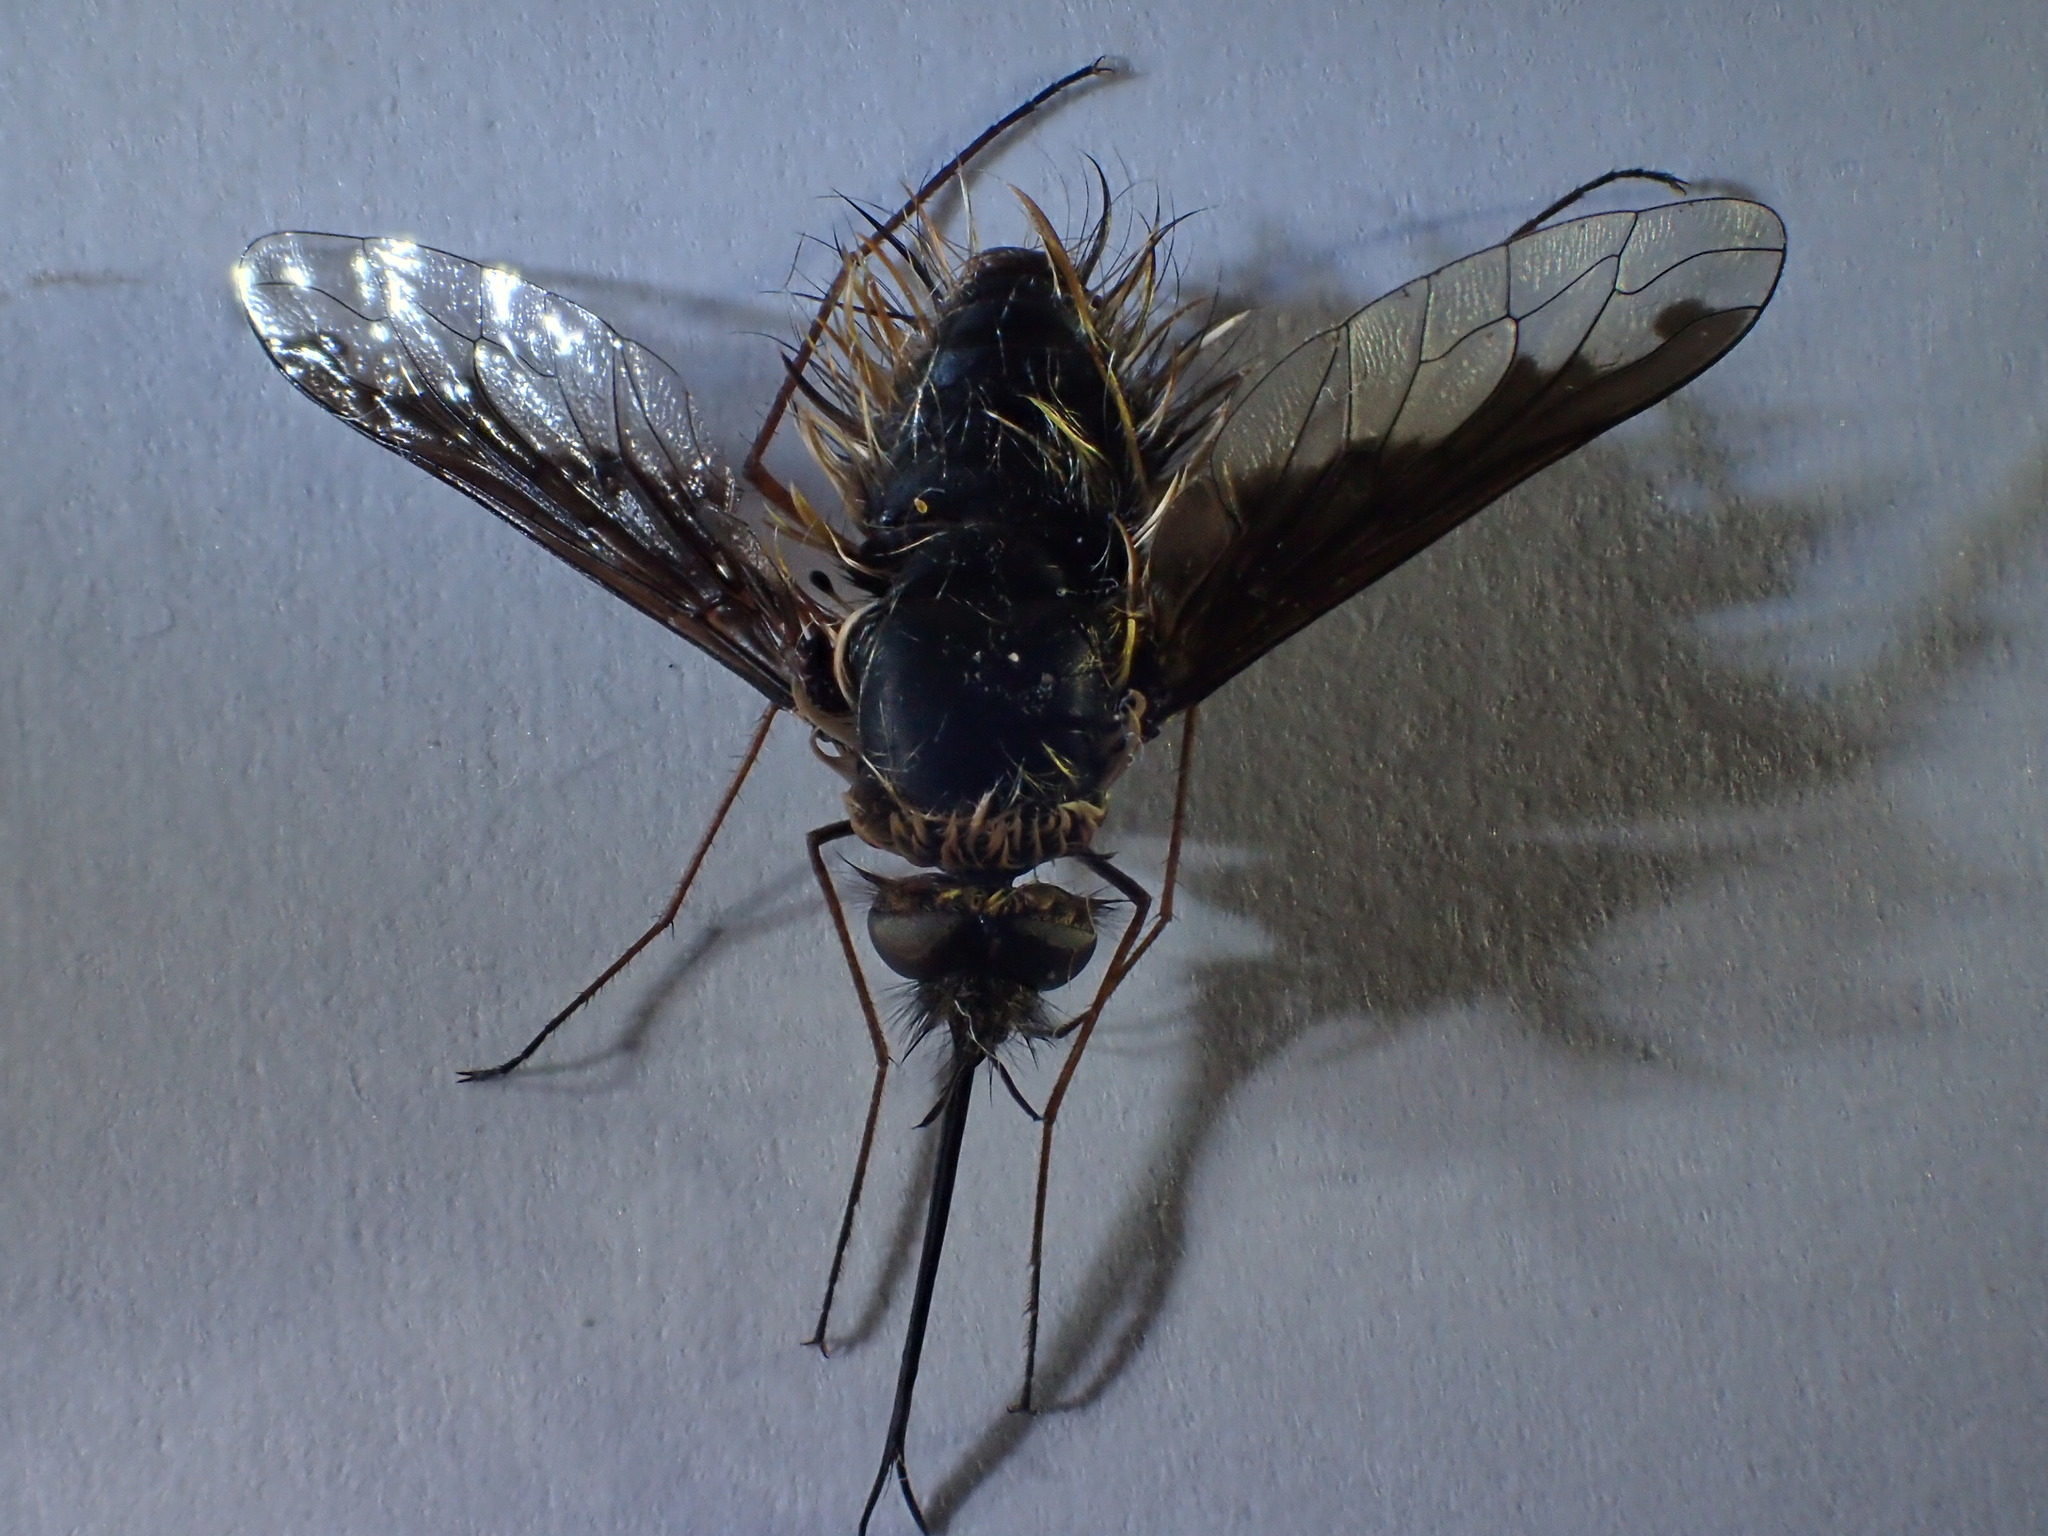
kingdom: Animalia
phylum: Arthropoda
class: Insecta
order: Diptera
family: Bombyliidae
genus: Bombylius
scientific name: Bombylius major
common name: Bee fly
